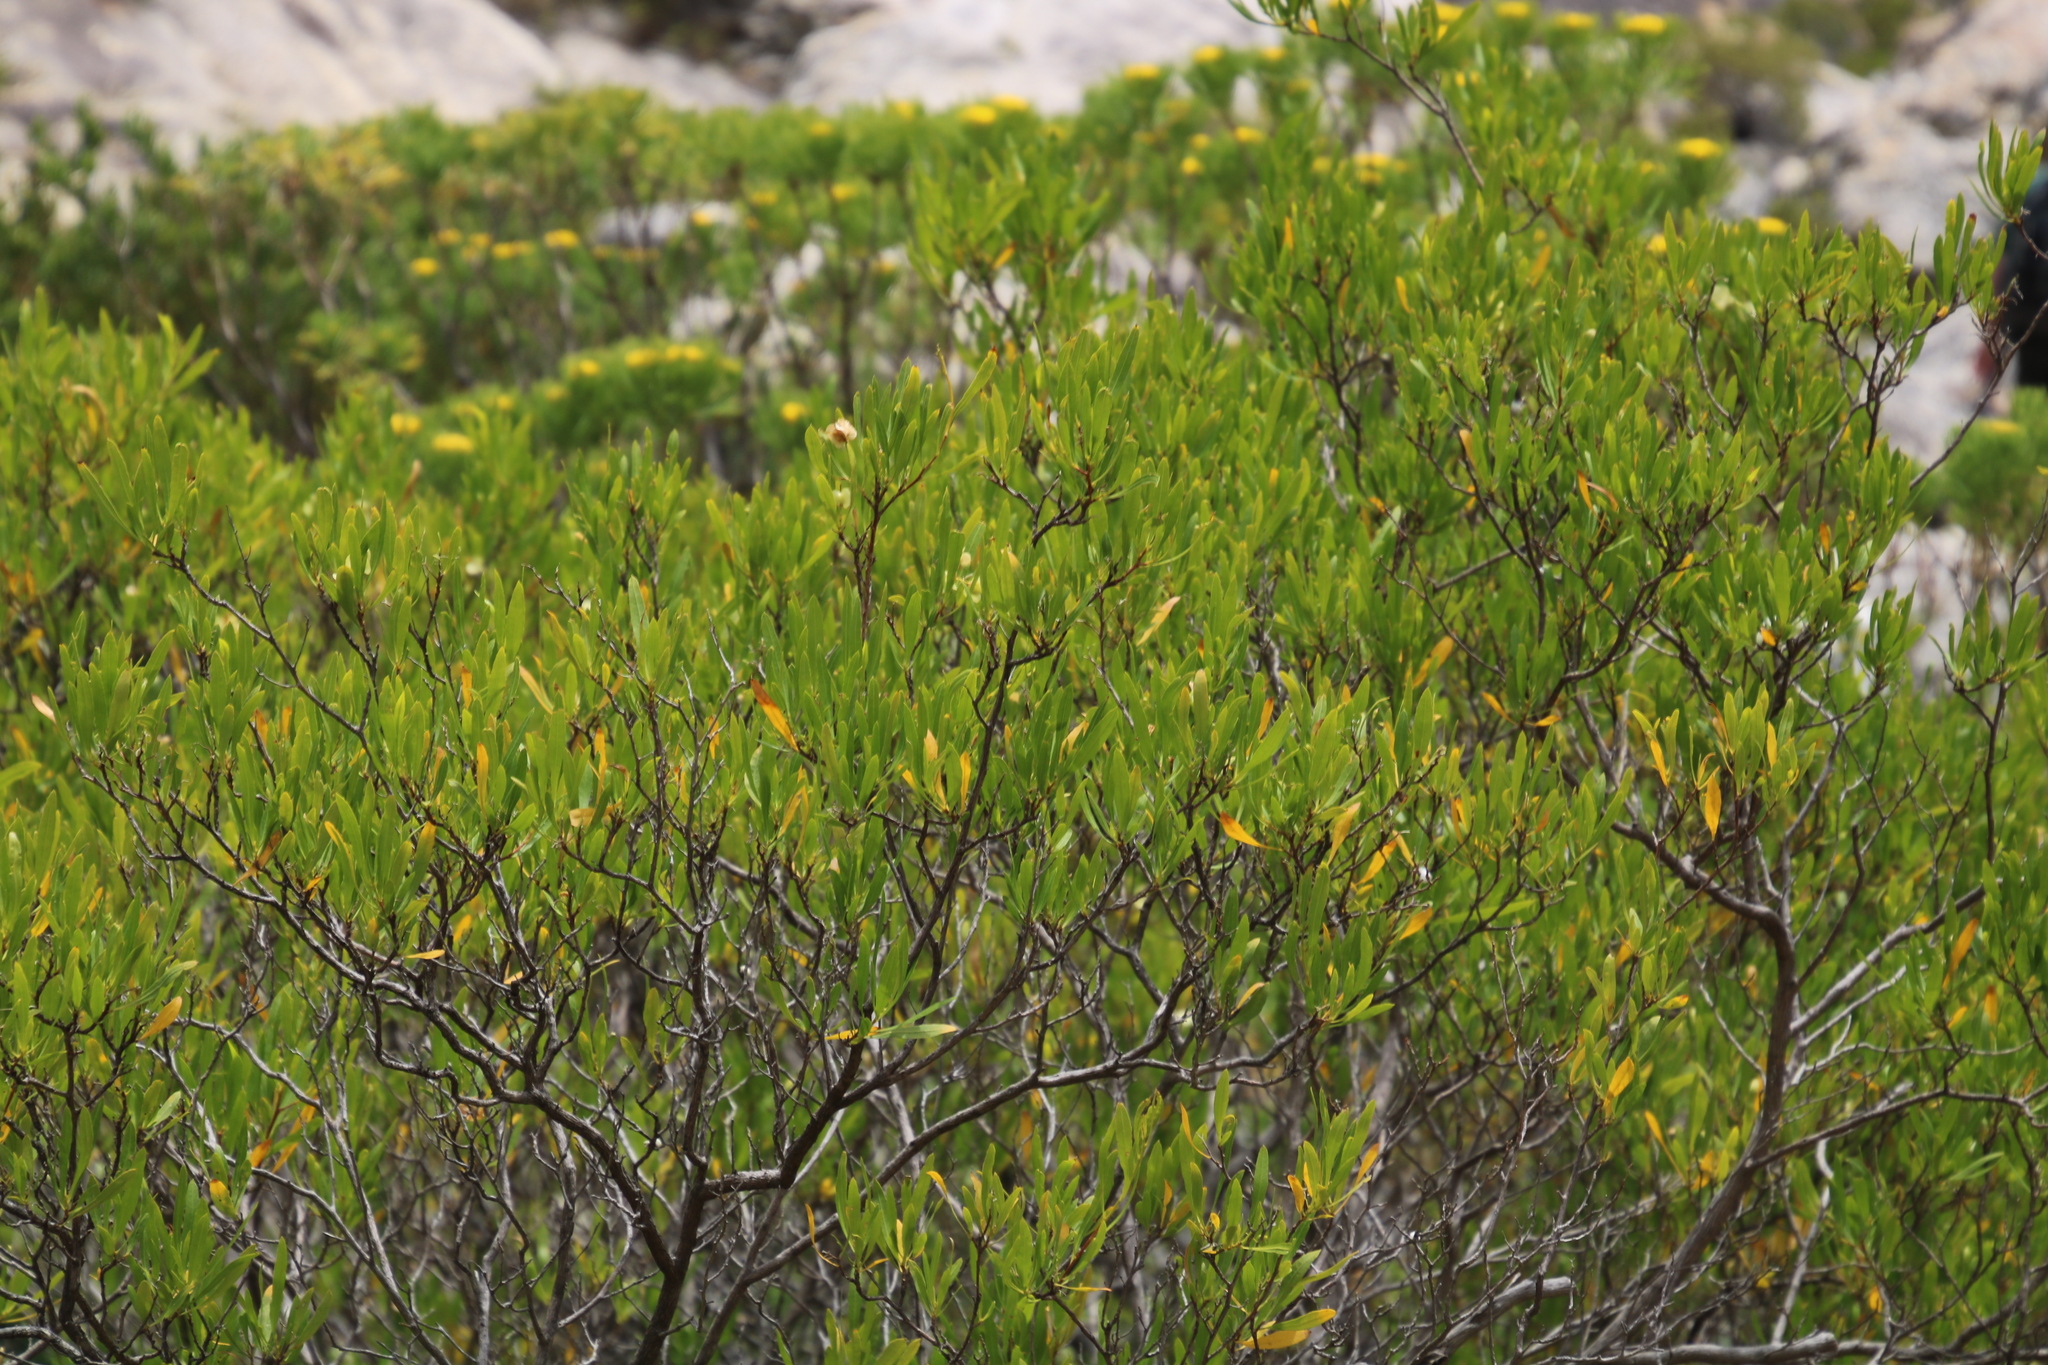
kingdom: Plantae
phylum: Tracheophyta
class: Magnoliopsida
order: Sapindales
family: Sapindaceae
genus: Dodonaea
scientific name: Dodonaea viscosa
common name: Hopbush
